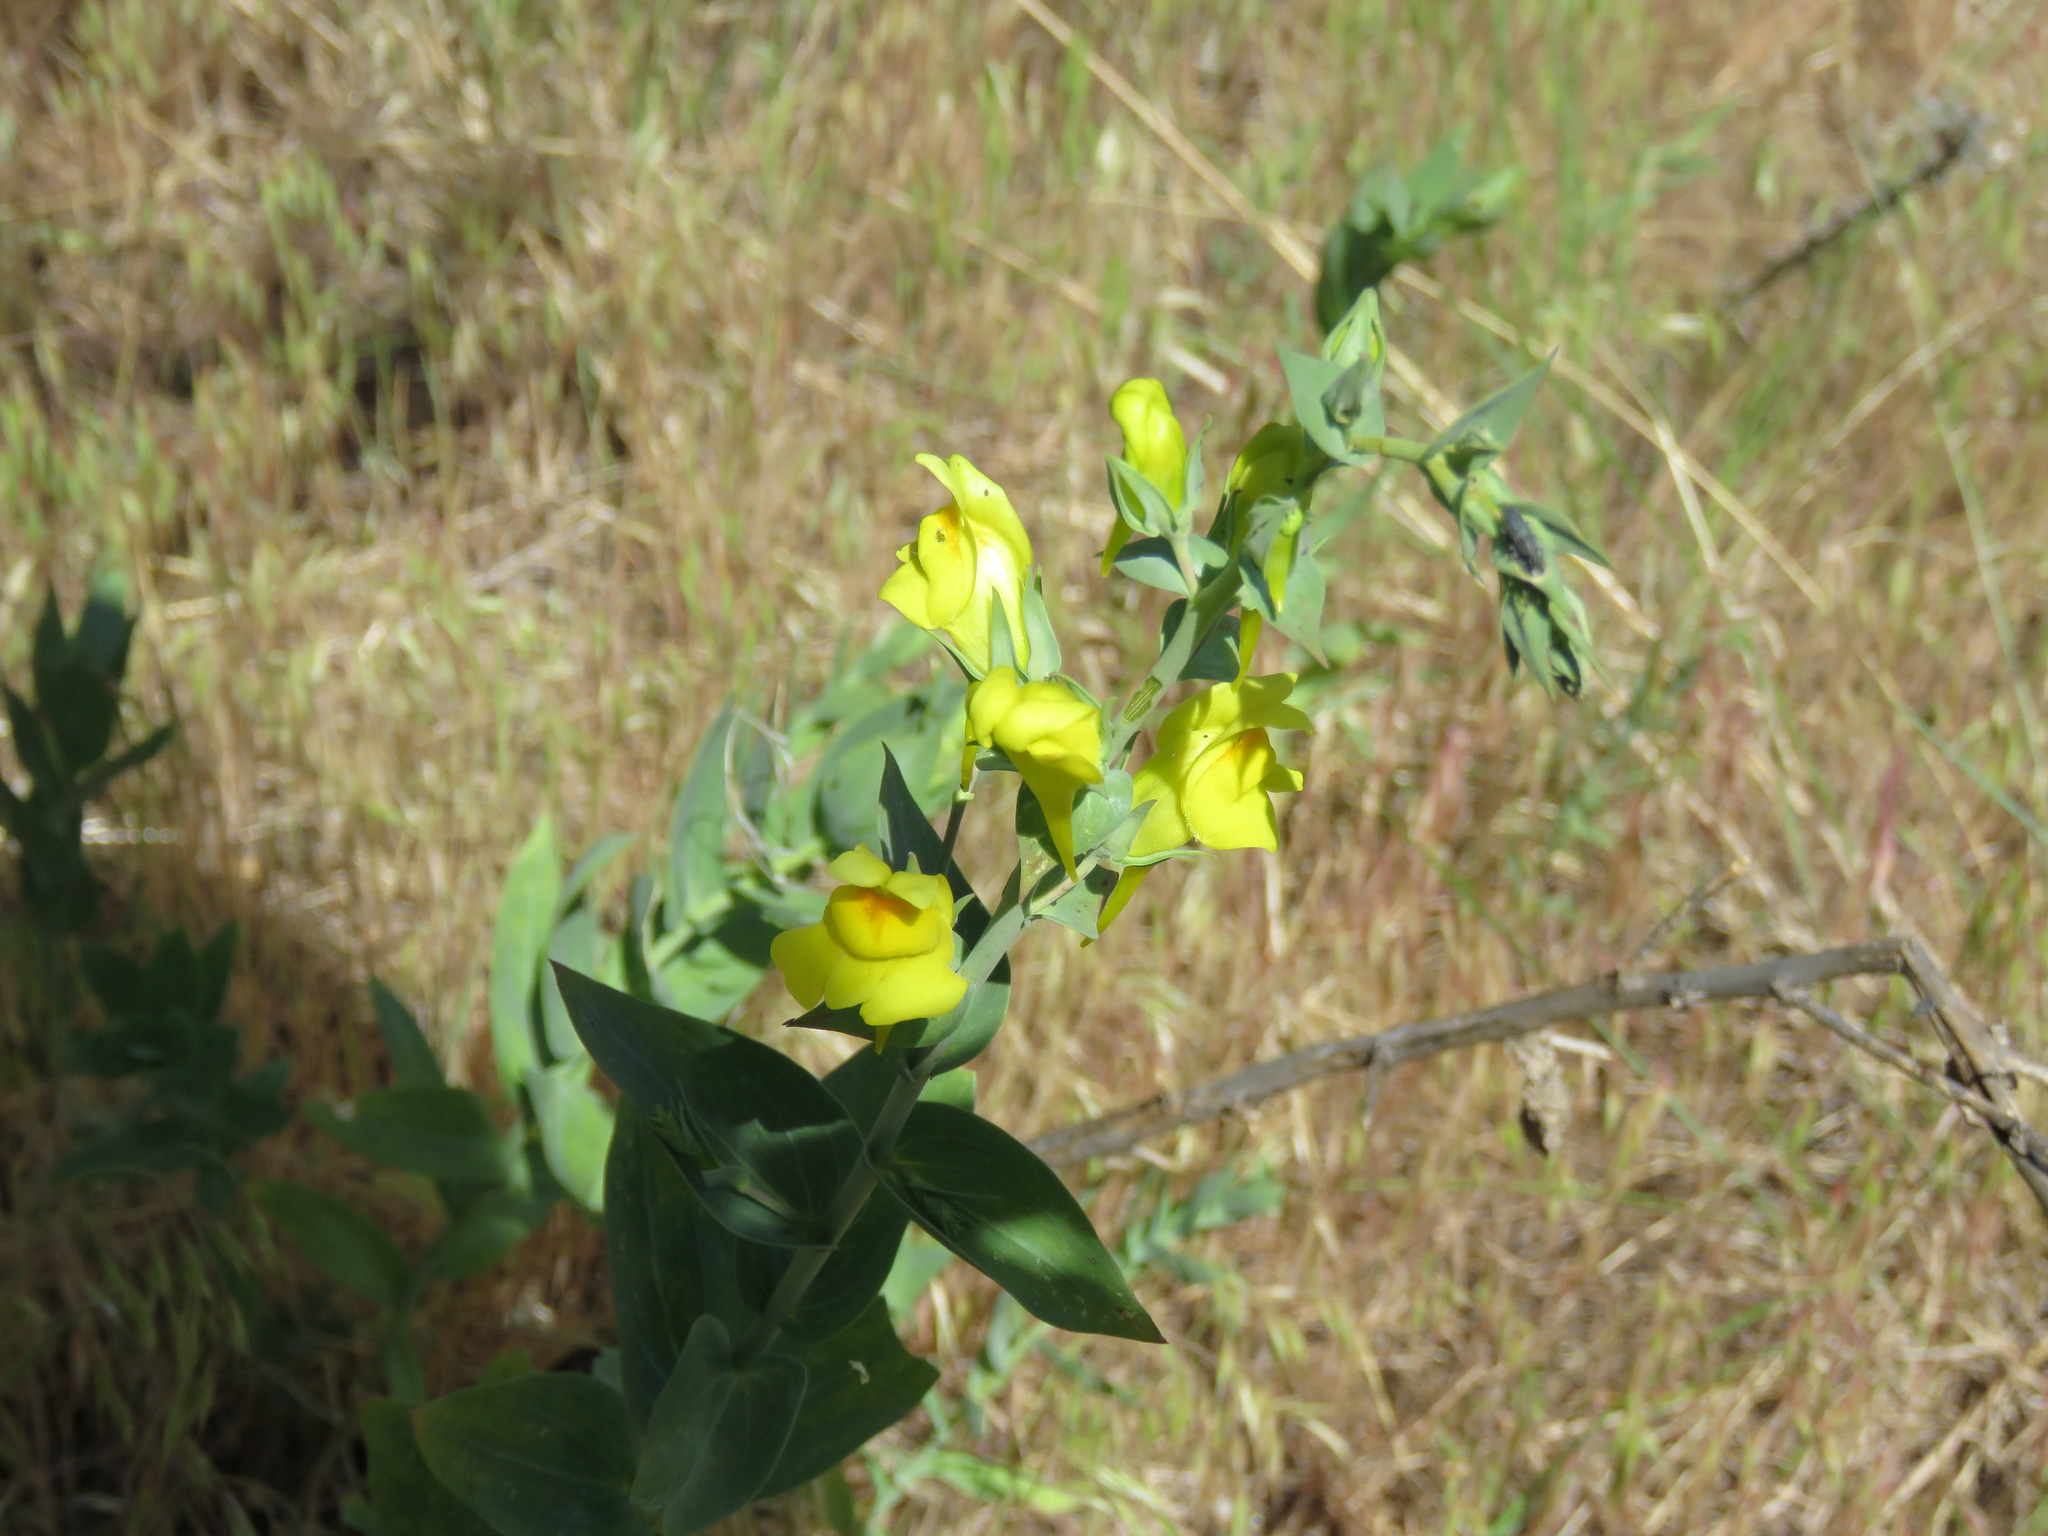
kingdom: Plantae
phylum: Tracheophyta
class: Magnoliopsida
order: Lamiales
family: Plantaginaceae
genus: Linaria
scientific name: Linaria dalmatica
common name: Dalmatian toadflax
